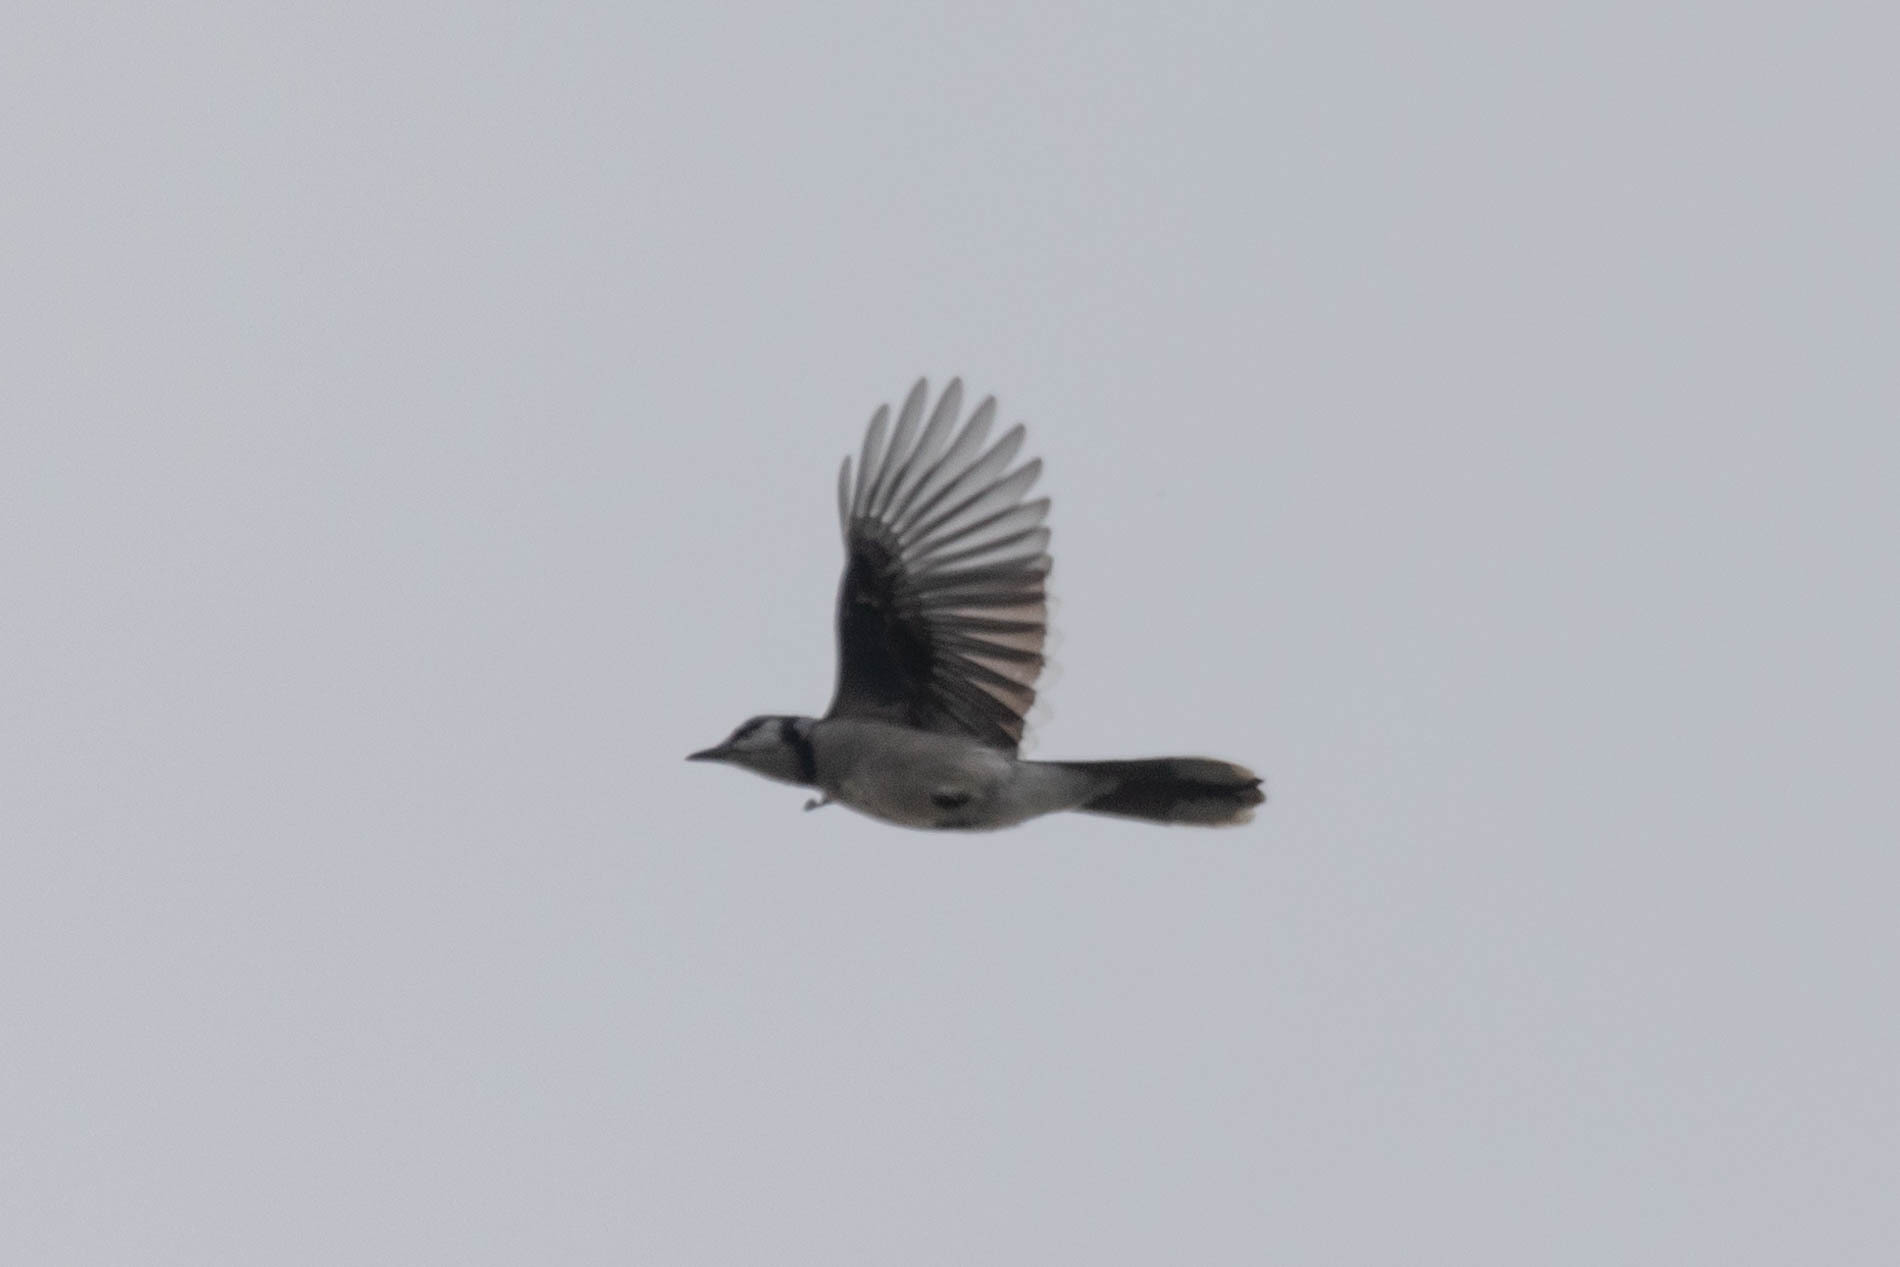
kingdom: Animalia
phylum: Chordata
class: Aves
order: Passeriformes
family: Corvidae
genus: Cyanocitta
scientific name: Cyanocitta cristata
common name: Blue jay
